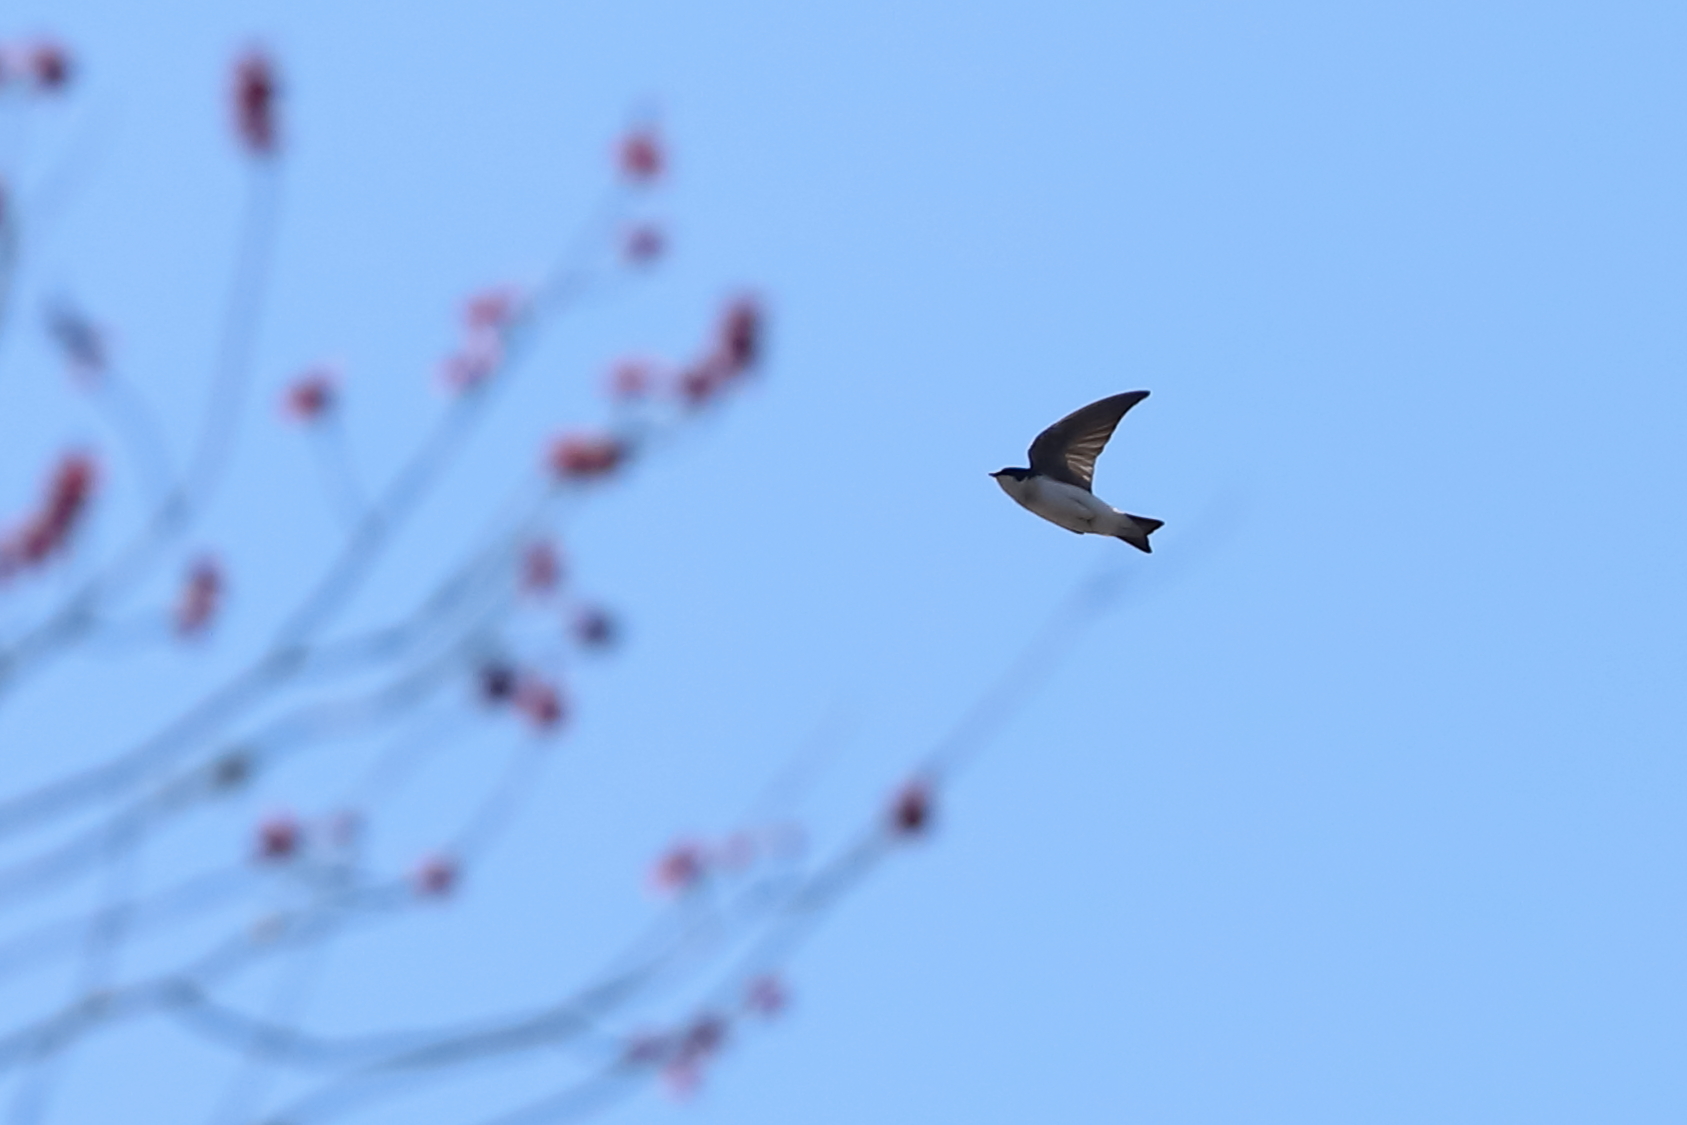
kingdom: Animalia
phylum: Chordata
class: Aves
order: Passeriformes
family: Hirundinidae
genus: Tachycineta
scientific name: Tachycineta bicolor
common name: Tree swallow
